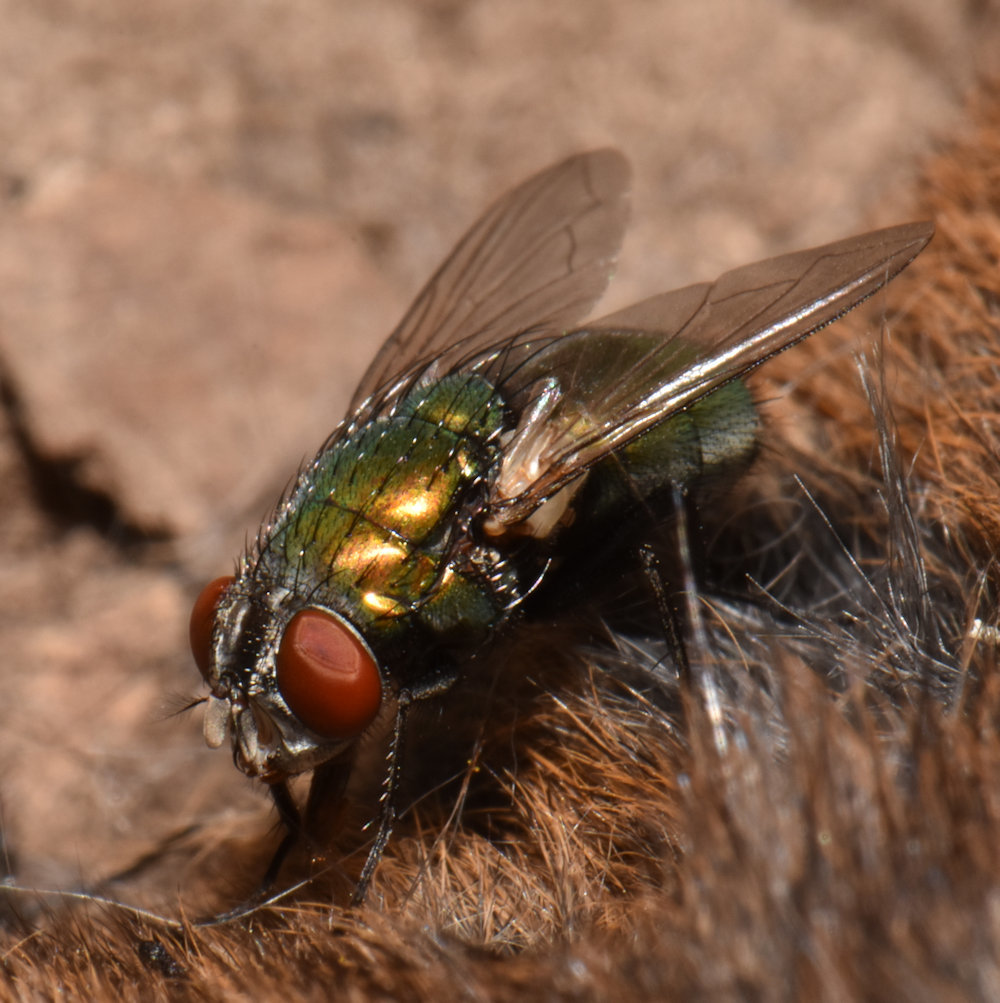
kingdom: Animalia
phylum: Arthropoda
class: Insecta
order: Diptera
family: Calliphoridae
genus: Lucilia
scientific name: Lucilia sericata
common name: Blow fly
